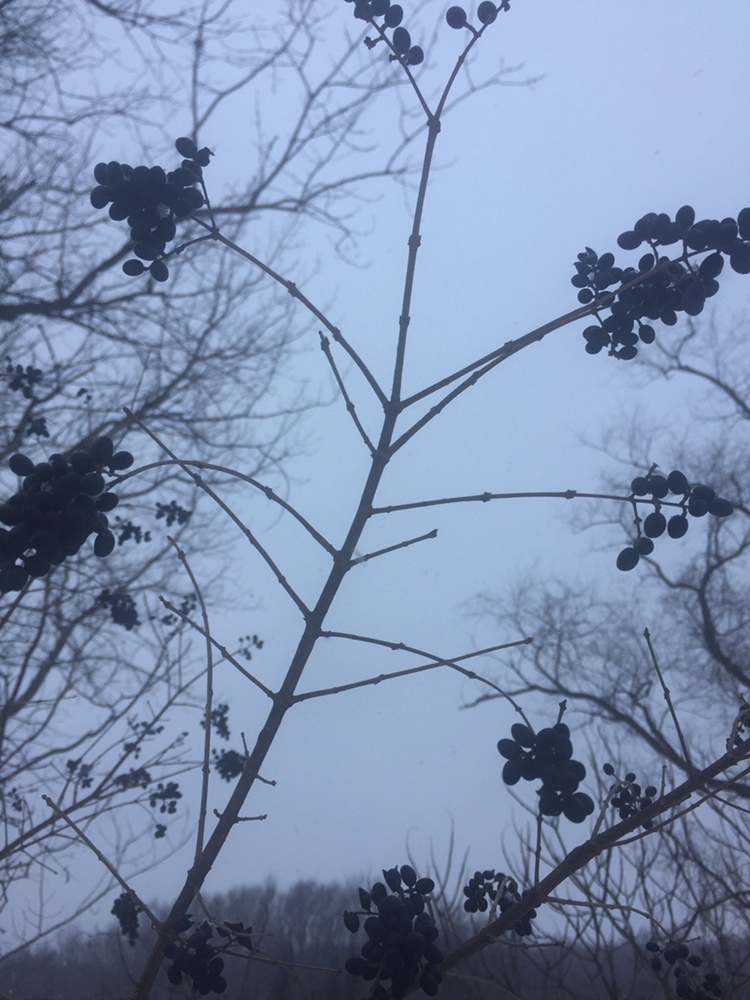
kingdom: Plantae
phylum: Tracheophyta
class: Magnoliopsida
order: Lamiales
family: Oleaceae
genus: Ligustrum
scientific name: Ligustrum
